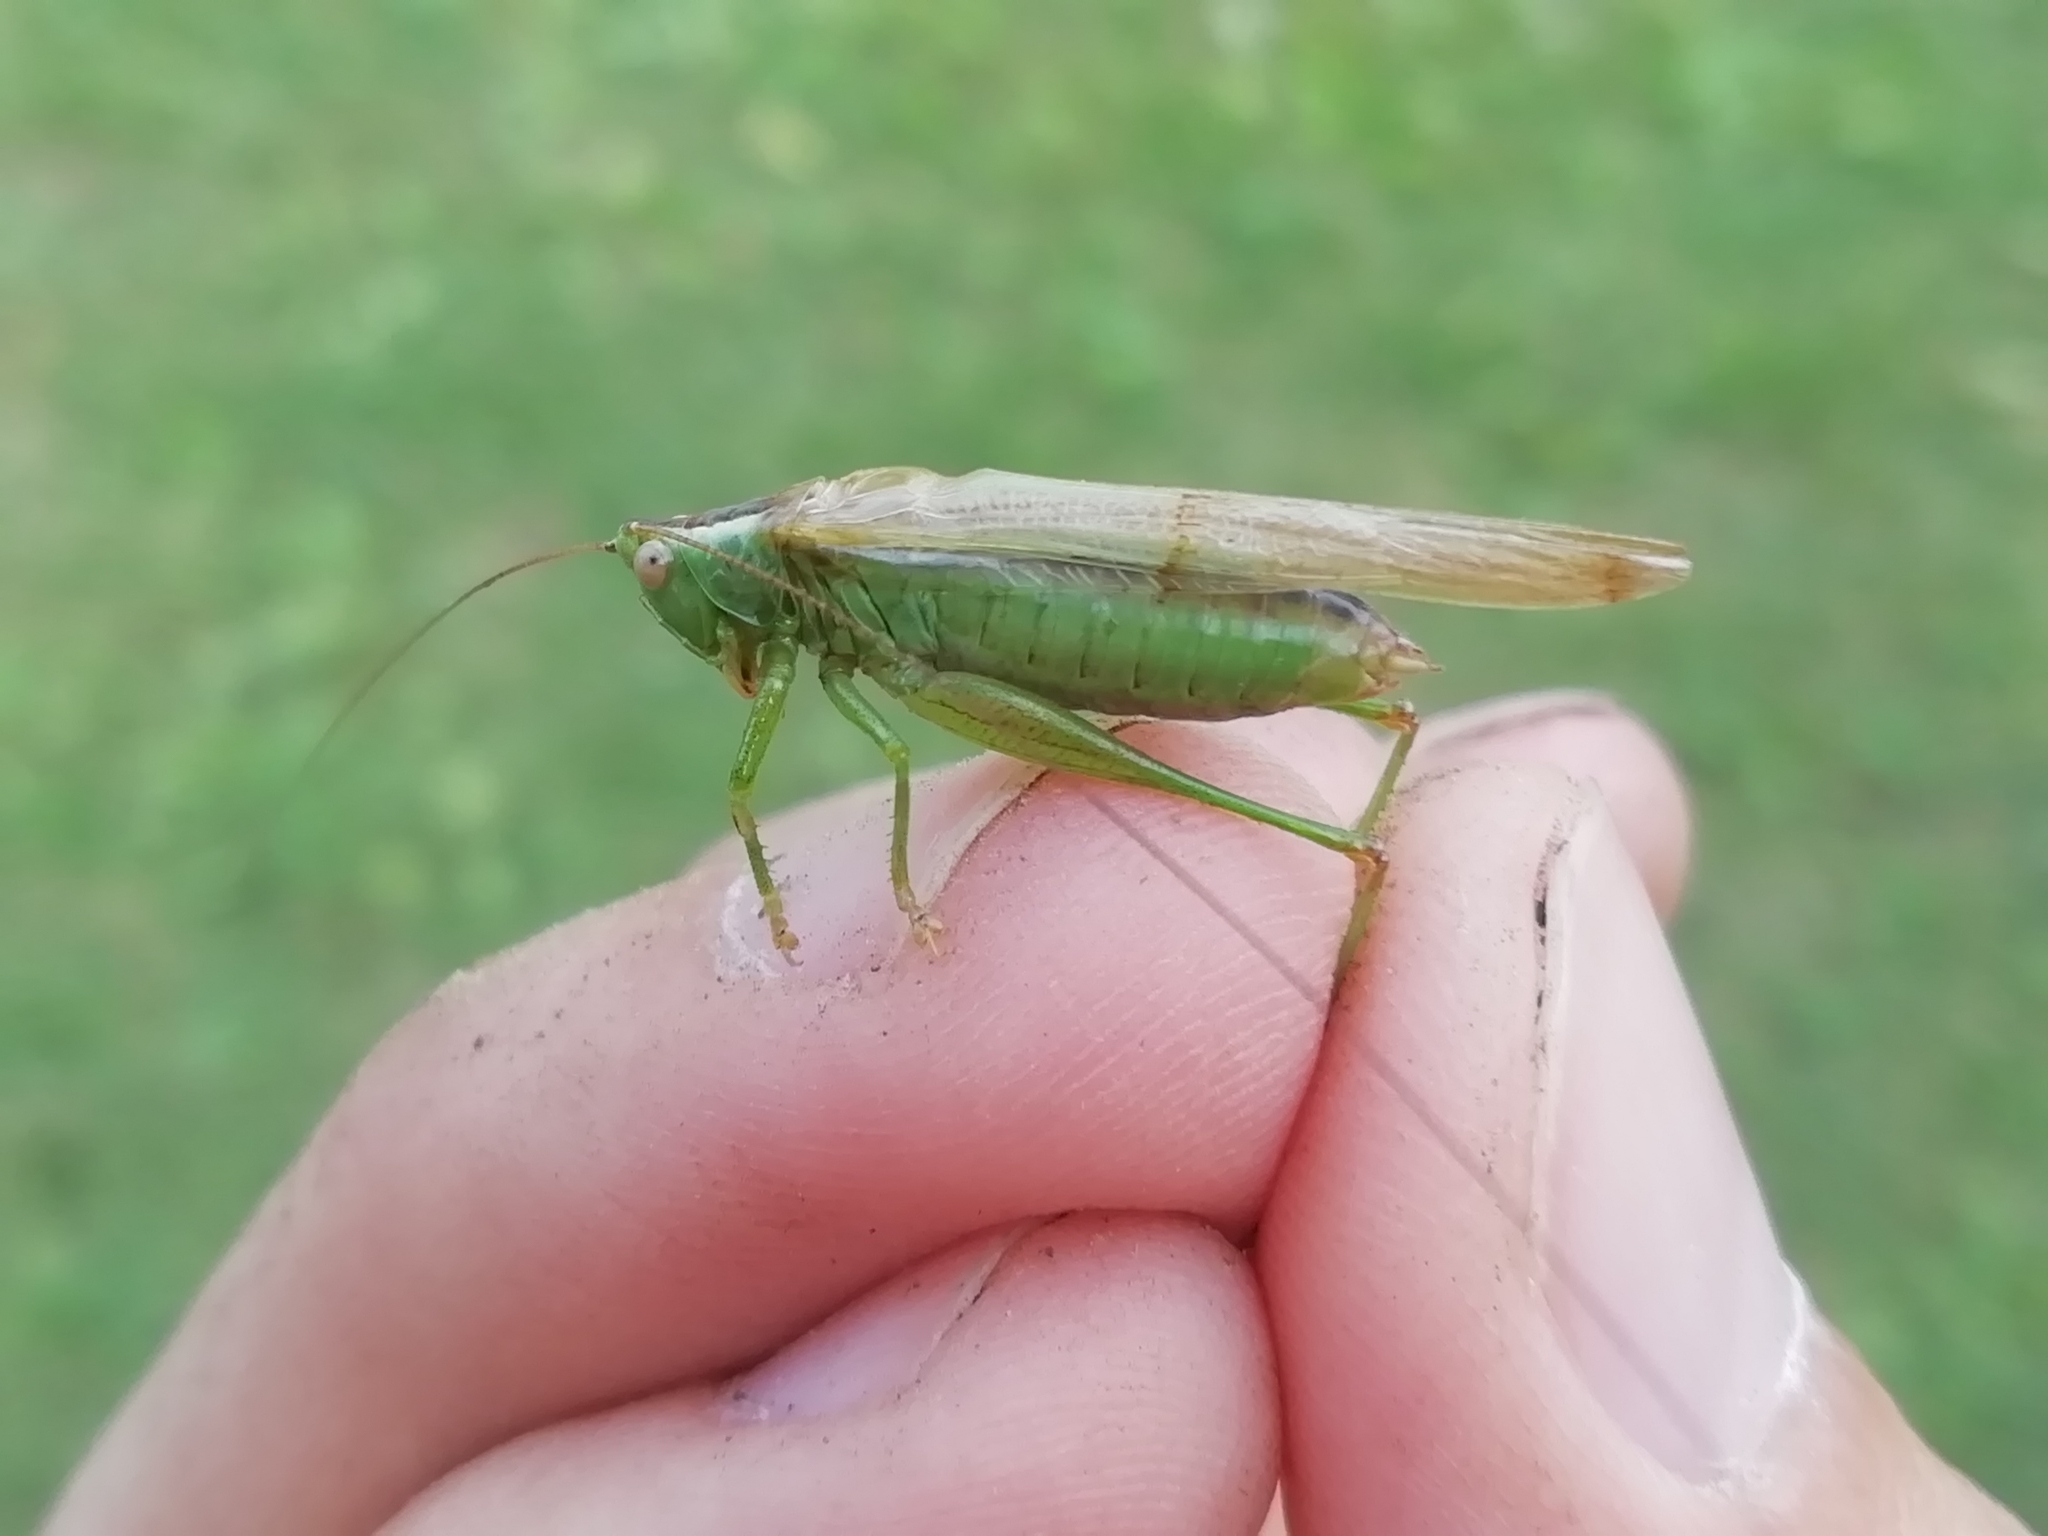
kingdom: Animalia
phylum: Arthropoda
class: Insecta
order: Orthoptera
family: Tettigoniidae
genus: Conocephalus
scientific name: Conocephalus fuscus
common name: Long-winged conehead
